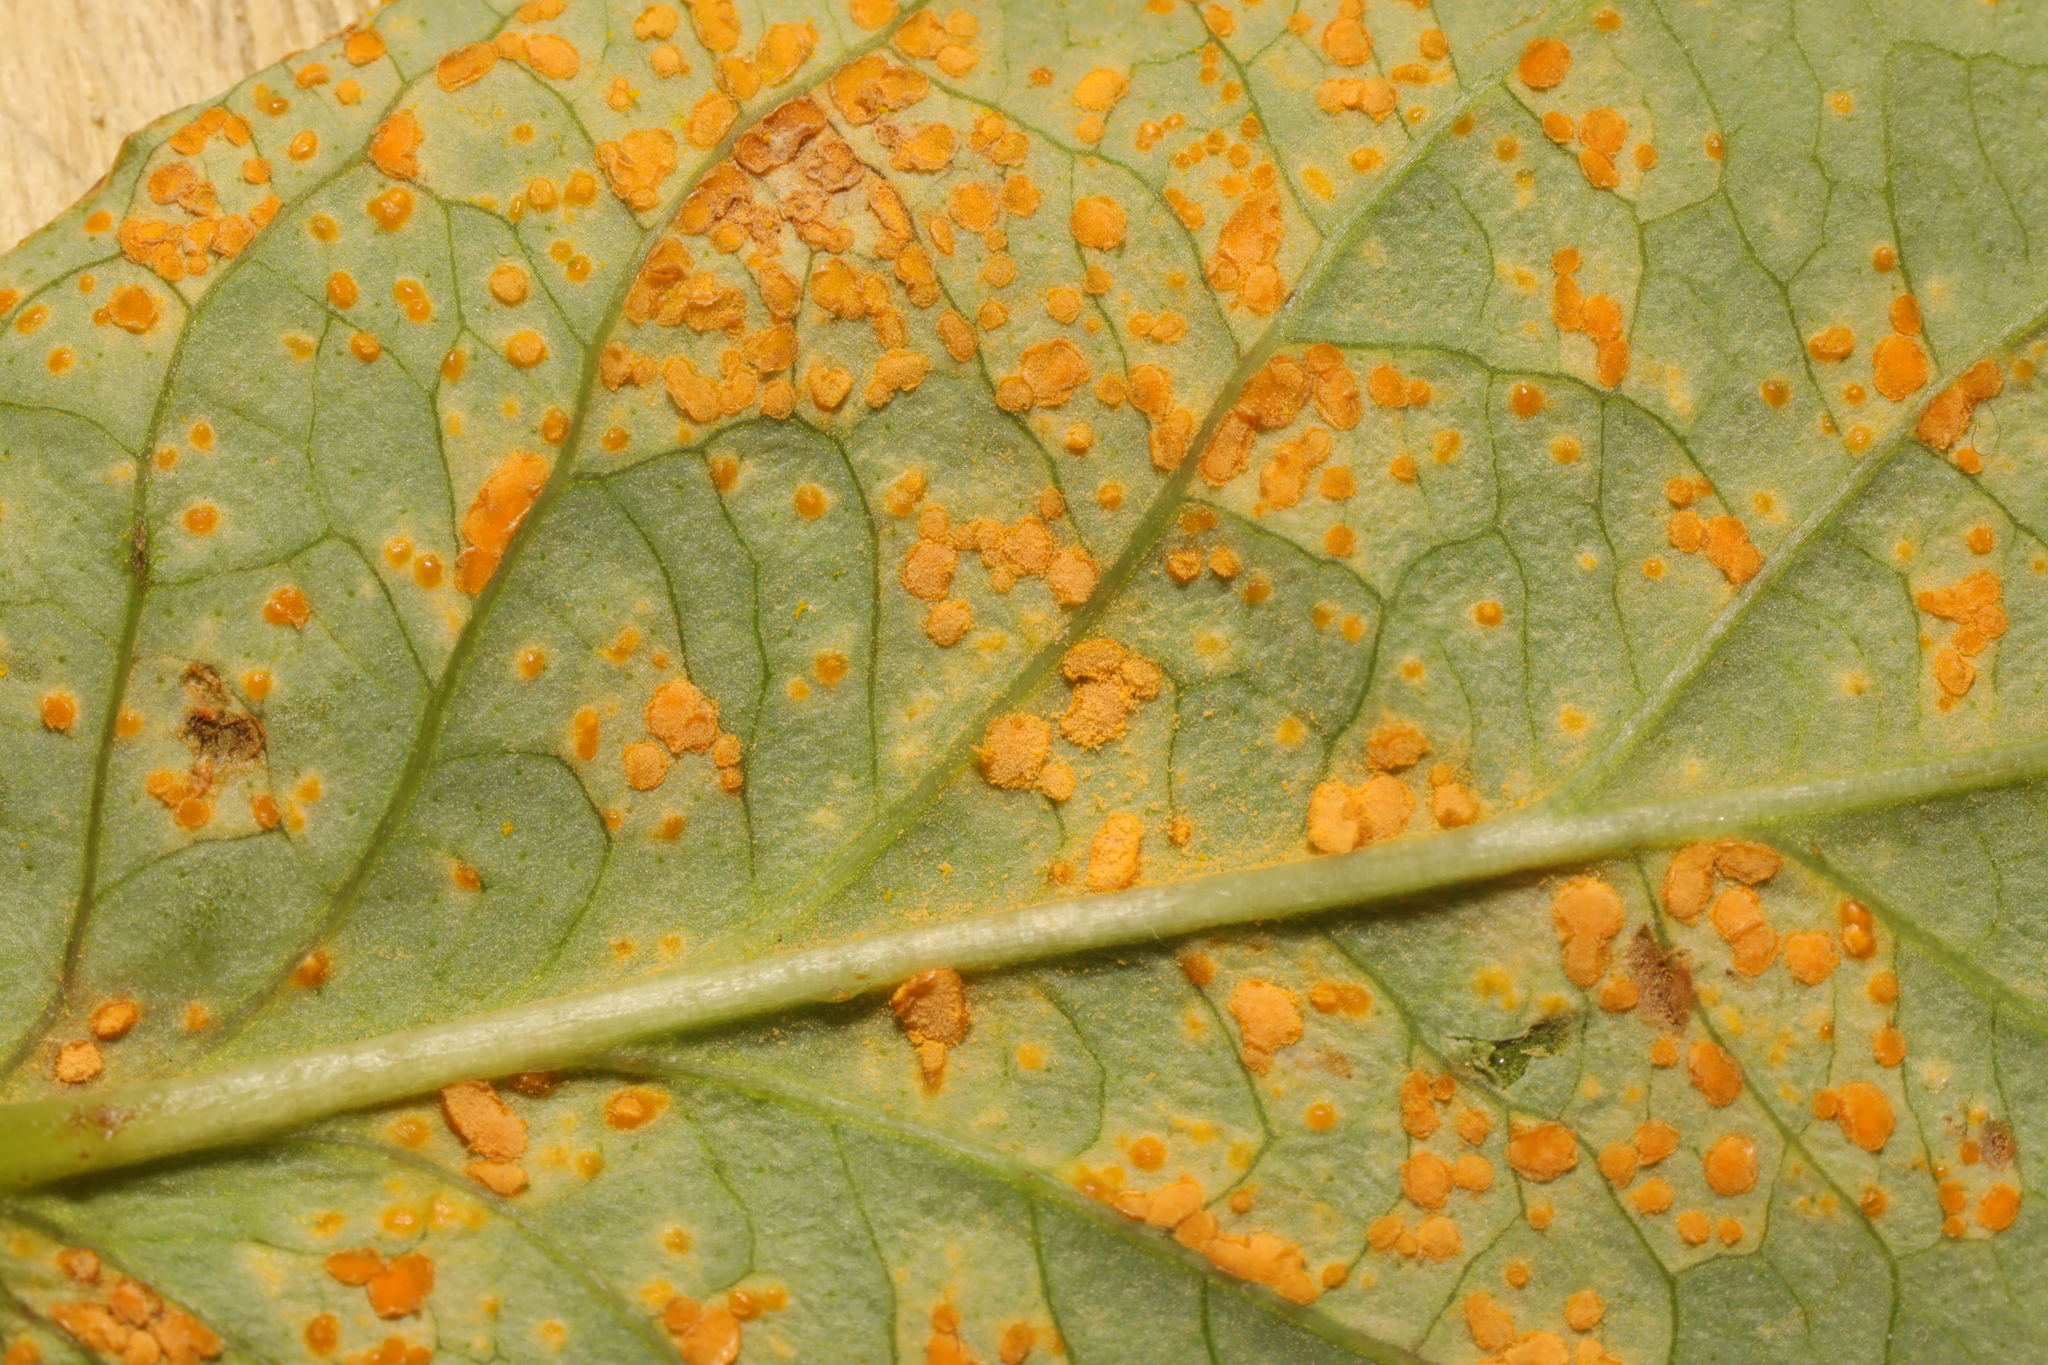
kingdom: Fungi
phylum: Basidiomycota
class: Pucciniomycetes
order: Pucciniales
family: Melampsoraceae
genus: Melampsora
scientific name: Melampsora
